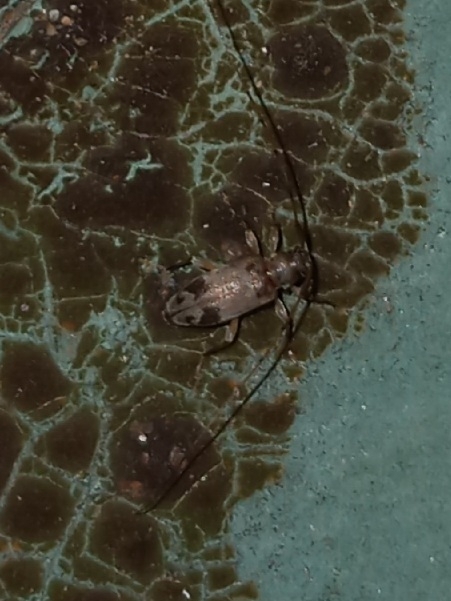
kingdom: Animalia
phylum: Arthropoda
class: Insecta
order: Coleoptera
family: Cerambycidae
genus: Urgleptes
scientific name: Urgleptes signatus
